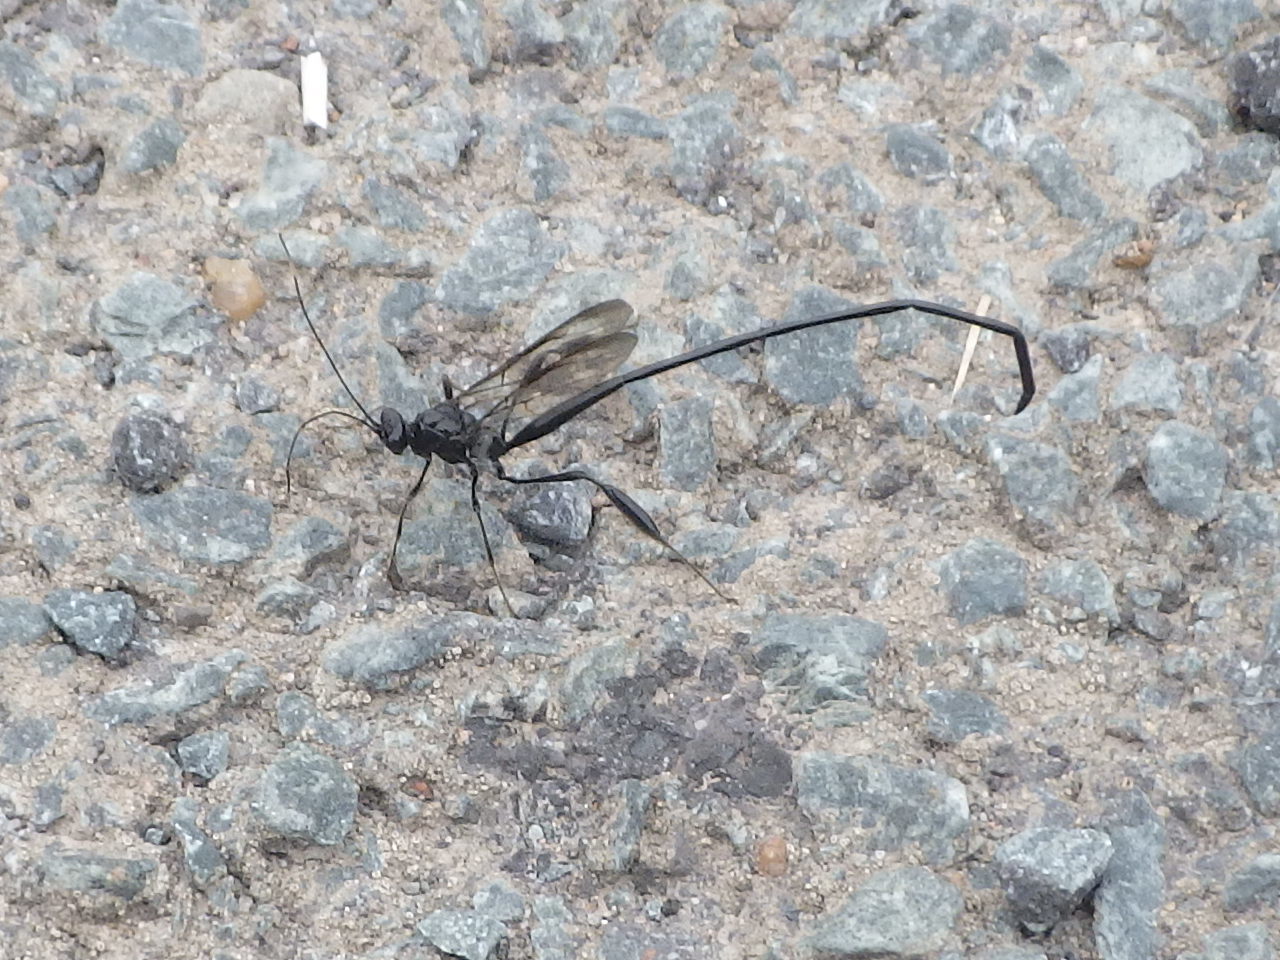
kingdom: Animalia
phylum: Arthropoda
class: Insecta
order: Hymenoptera
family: Pelecinidae
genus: Pelecinus
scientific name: Pelecinus polyturator
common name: American pelecinid wasp
